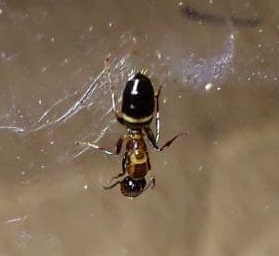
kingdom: Animalia
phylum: Arthropoda
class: Insecta
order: Hymenoptera
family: Formicidae
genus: Camponotus
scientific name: Camponotus truncatus
